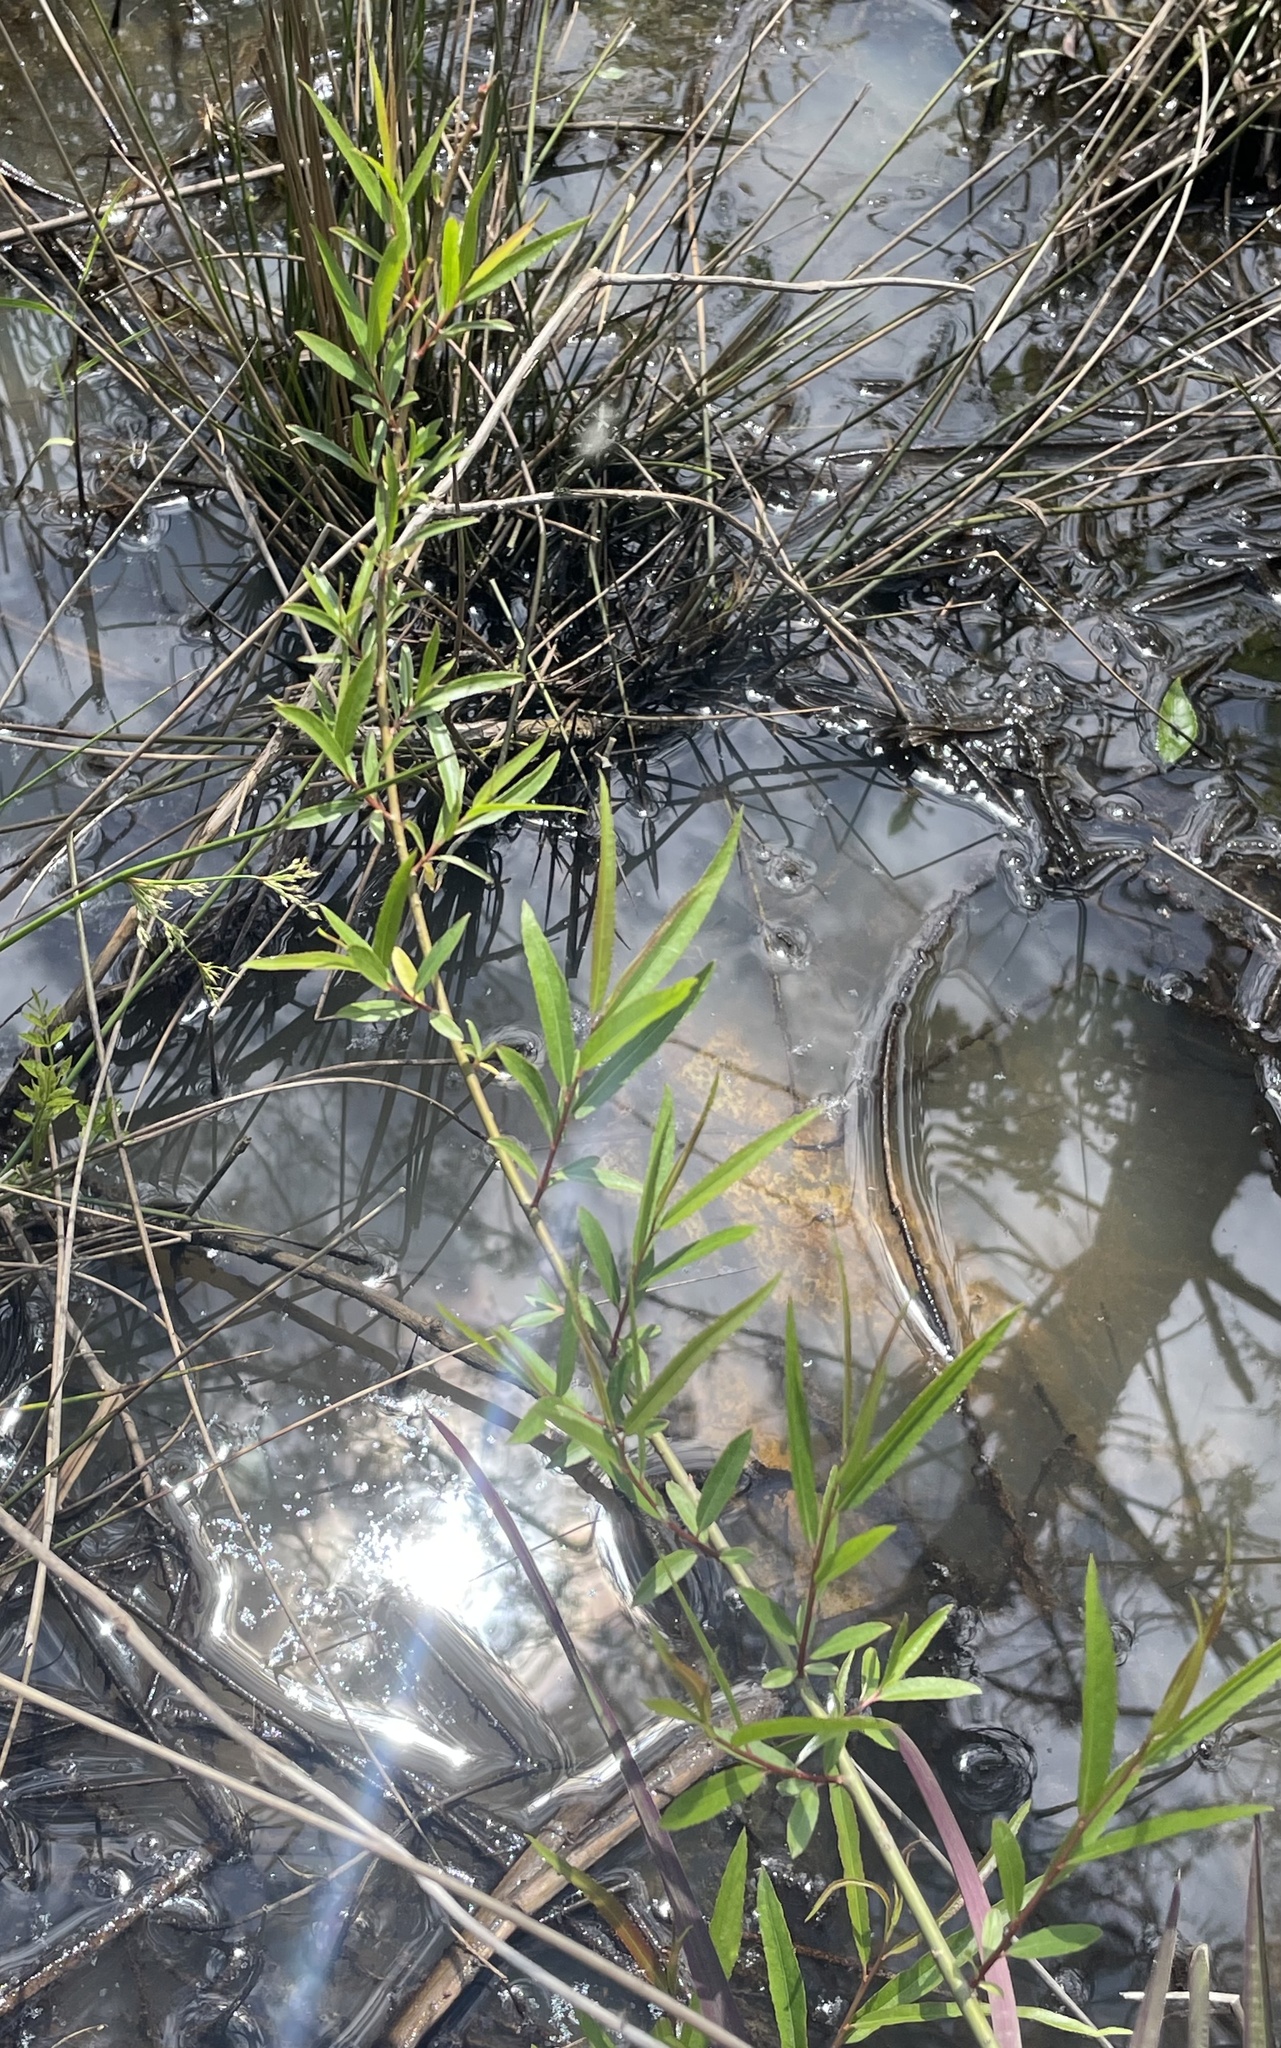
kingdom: Plantae
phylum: Tracheophyta
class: Magnoliopsida
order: Malpighiales
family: Salicaceae
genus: Salix
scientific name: Salix nigra
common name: Black willow
